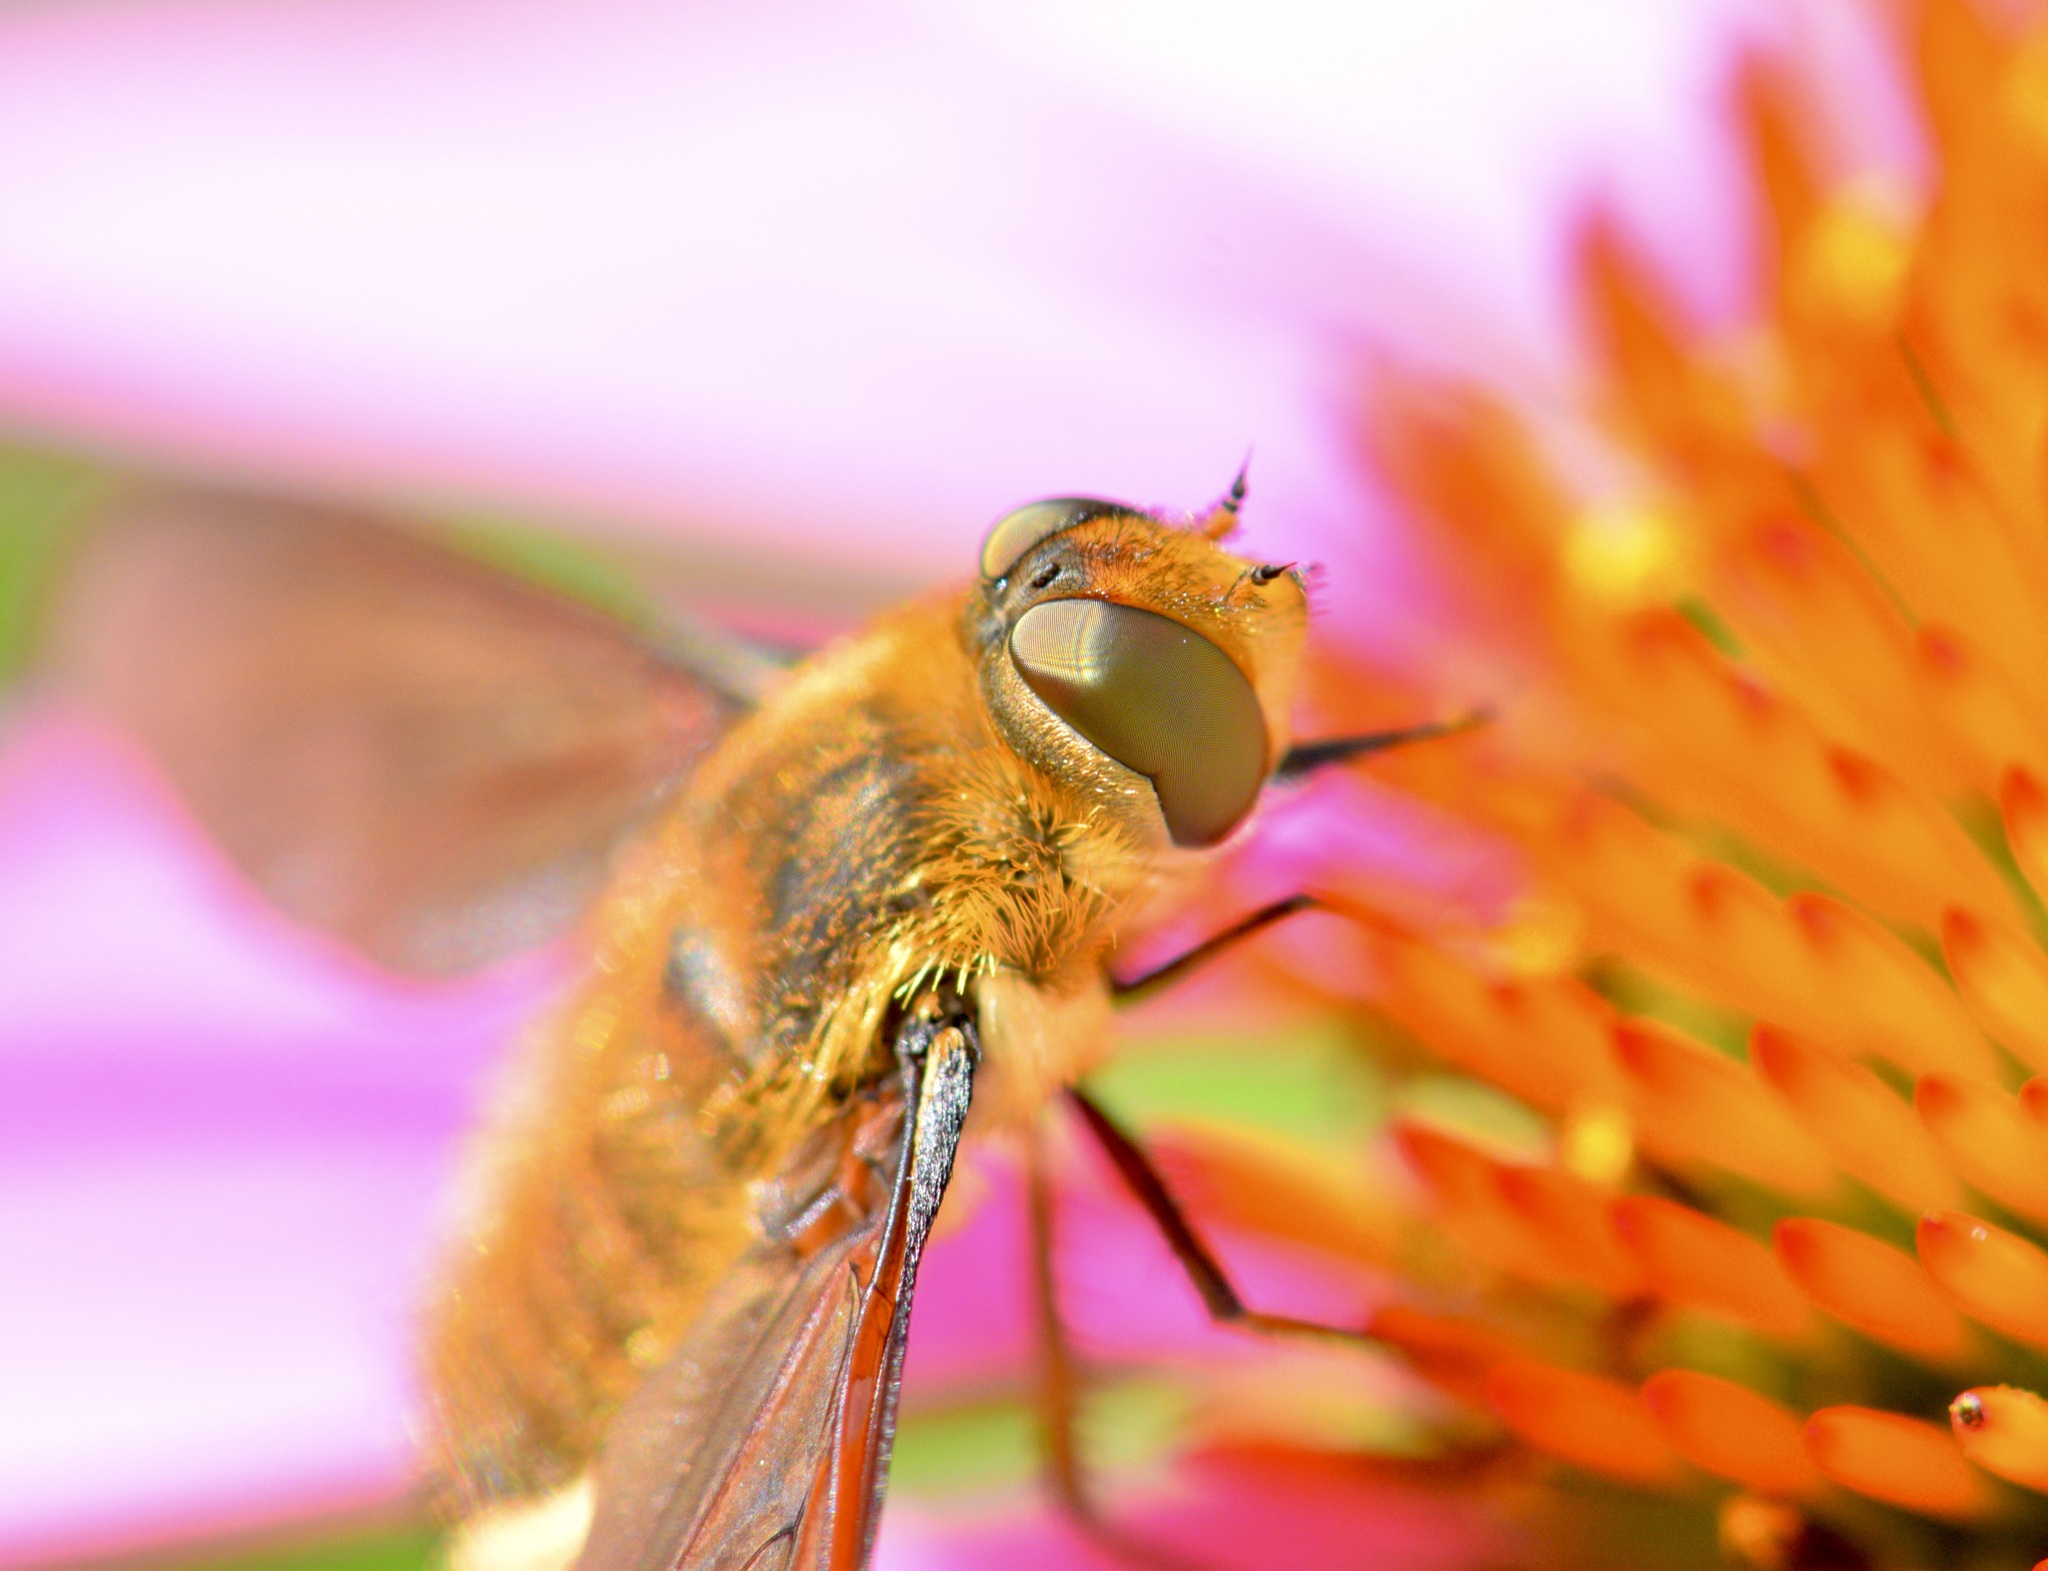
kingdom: Animalia
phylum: Arthropoda
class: Insecta
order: Diptera
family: Bombyliidae
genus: Poecilanthrax
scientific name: Poecilanthrax tegminipennis
